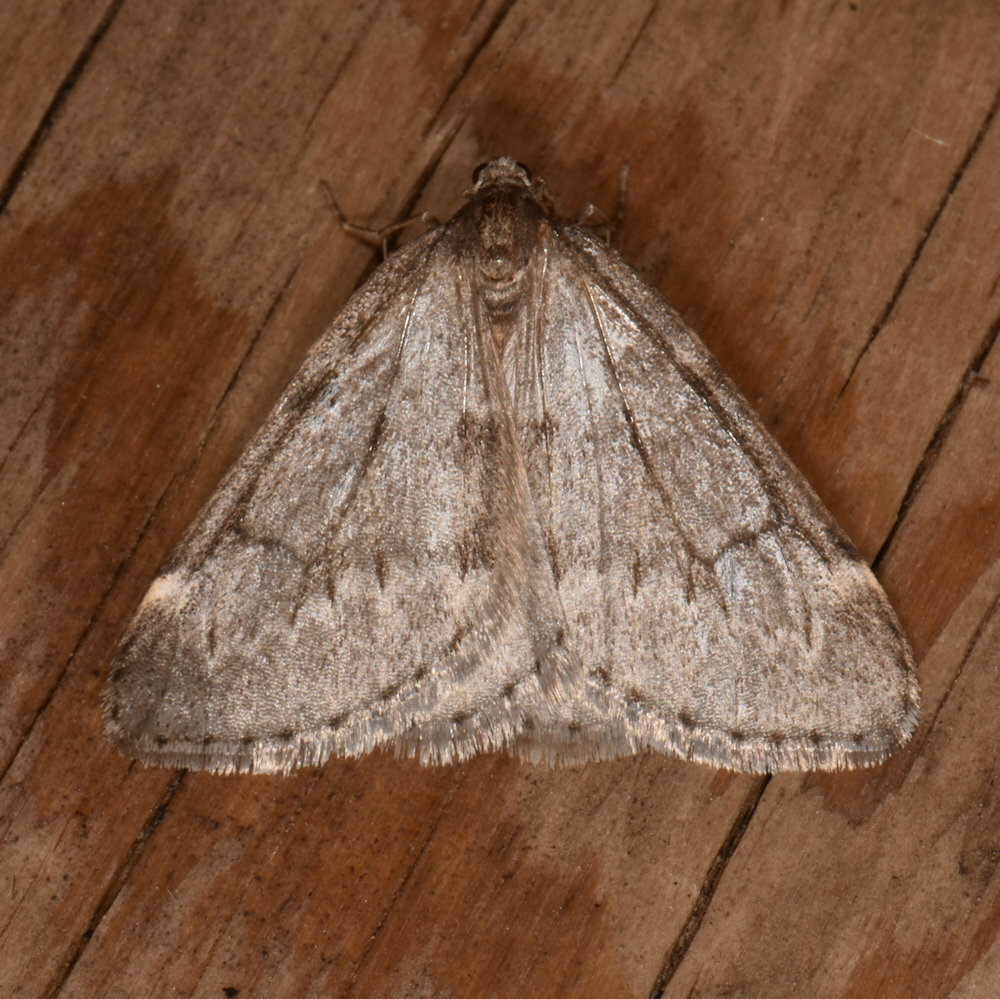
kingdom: Animalia
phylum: Arthropoda
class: Insecta
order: Lepidoptera
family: Geometridae
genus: Alsophila
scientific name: Alsophila pometaria
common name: Fall cankerworm
